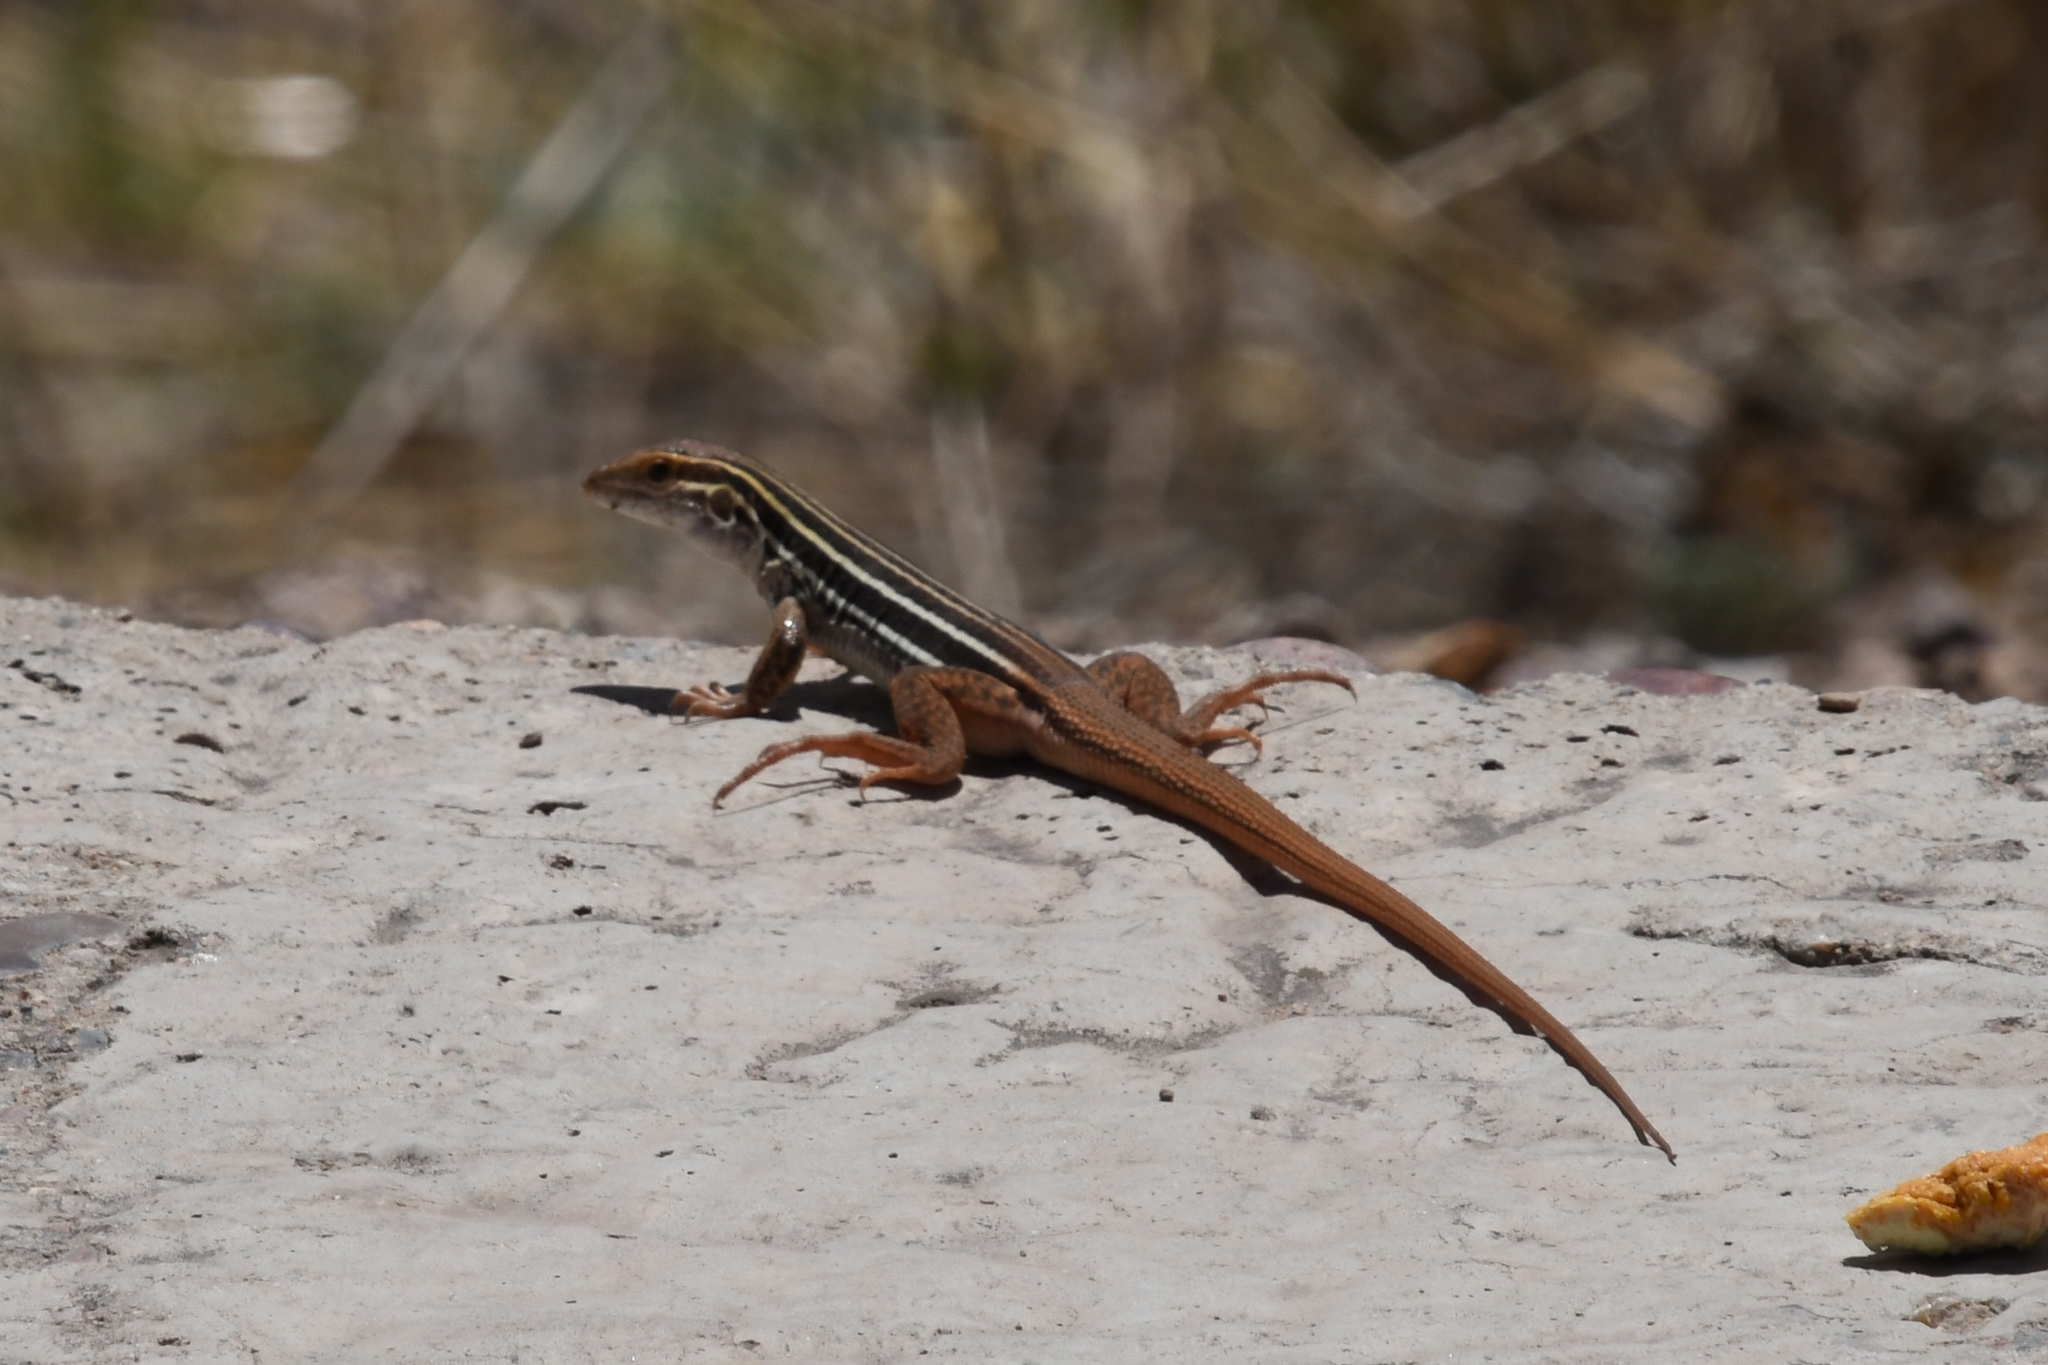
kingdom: Animalia
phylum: Chordata
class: Squamata
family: Teiidae
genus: Aspidoscelis
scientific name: Aspidoscelis stictogrammus
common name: Giant spotted whiptail
